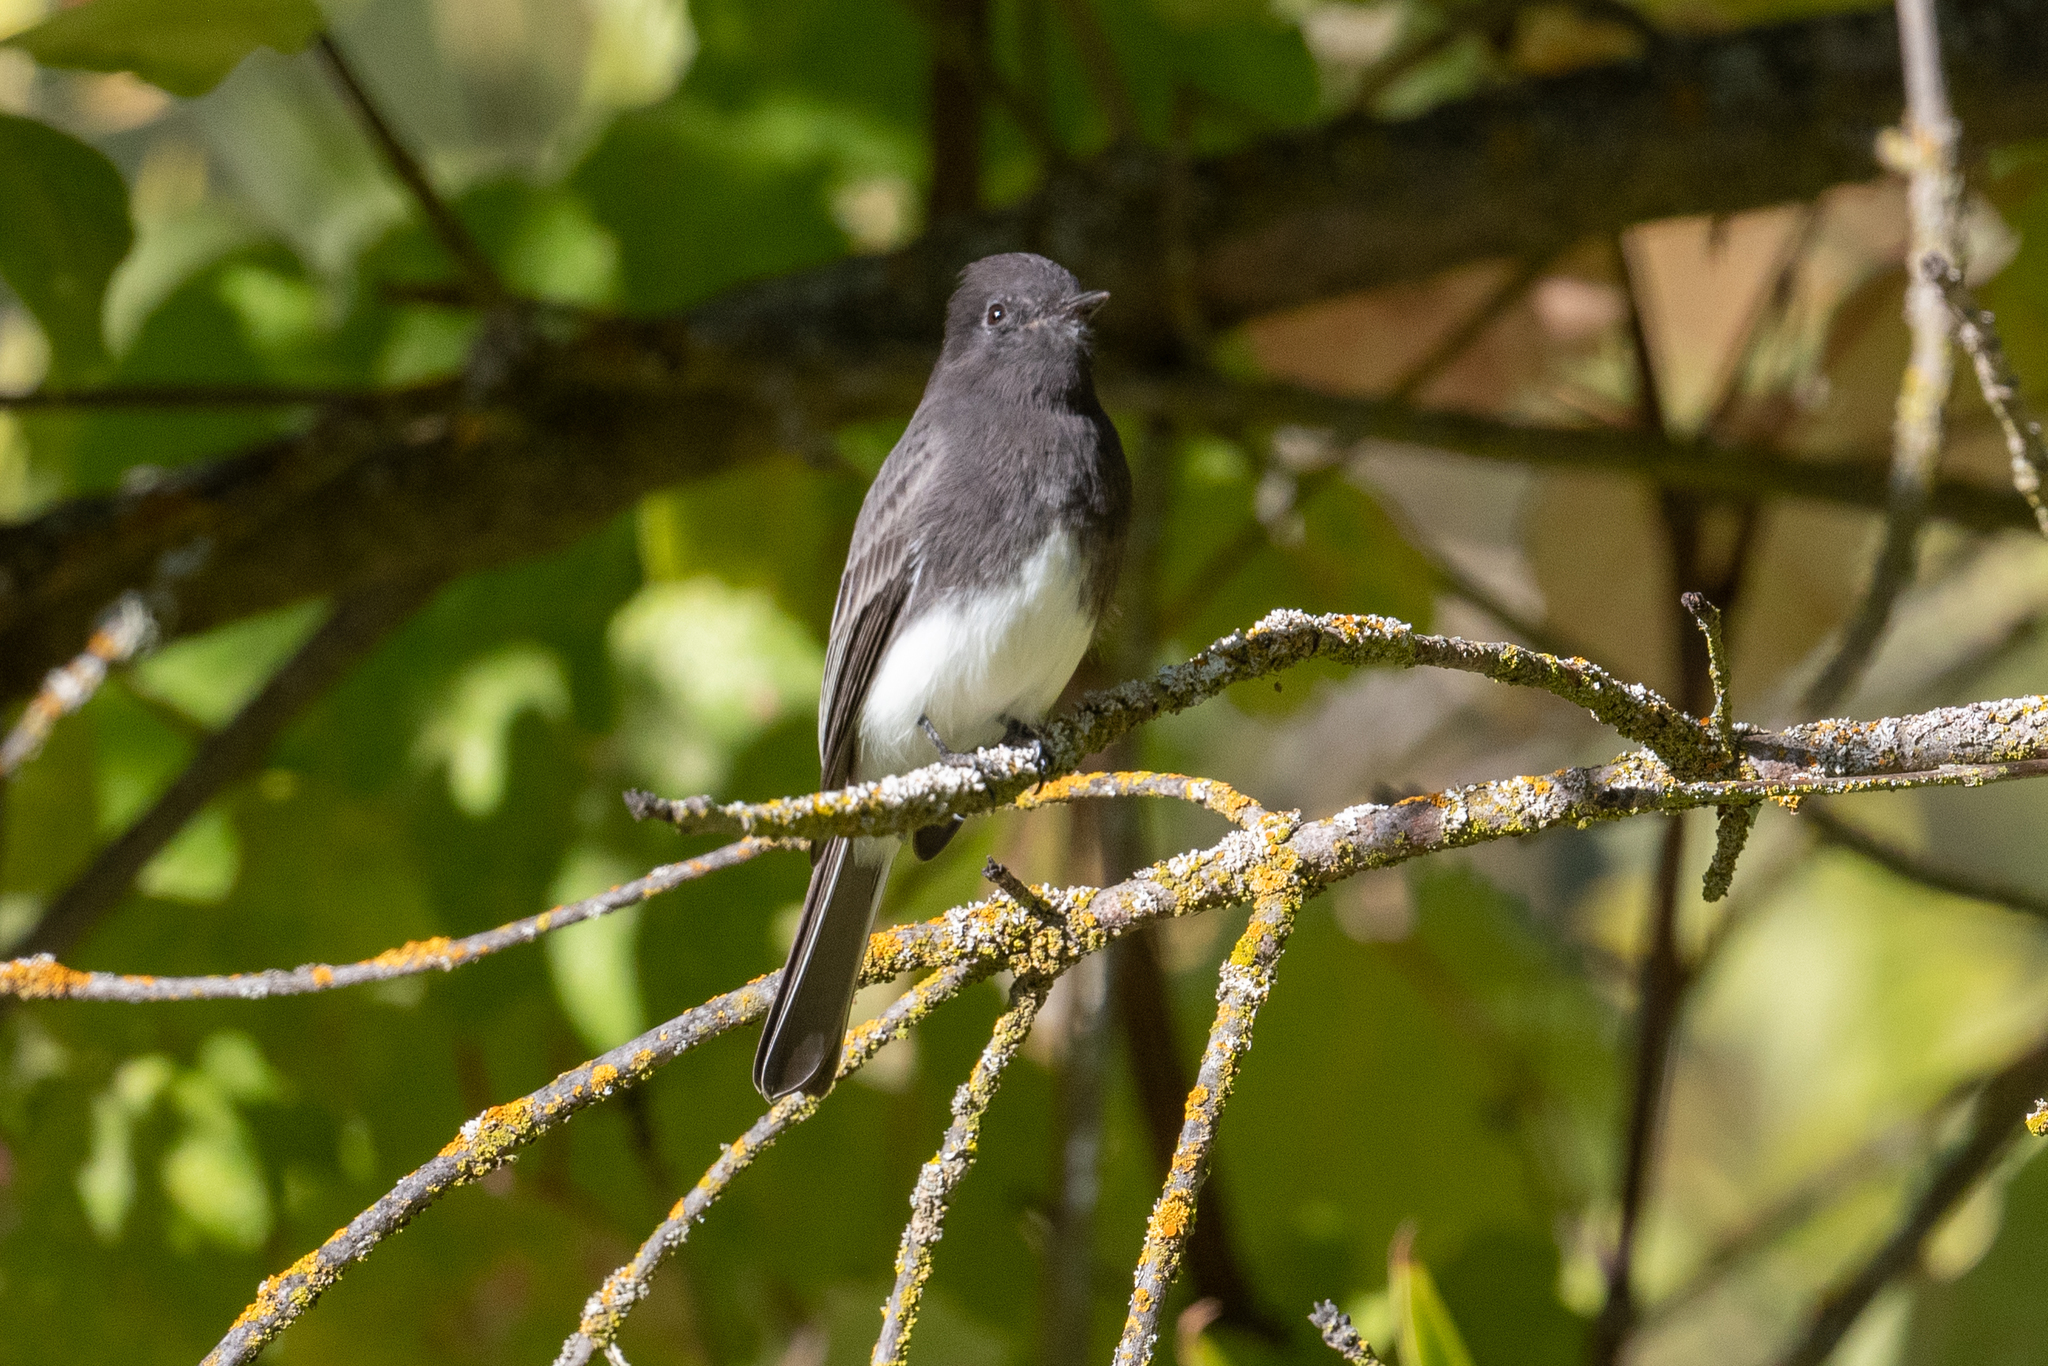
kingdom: Animalia
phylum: Chordata
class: Aves
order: Passeriformes
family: Tyrannidae
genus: Sayornis
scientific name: Sayornis nigricans
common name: Black phoebe
